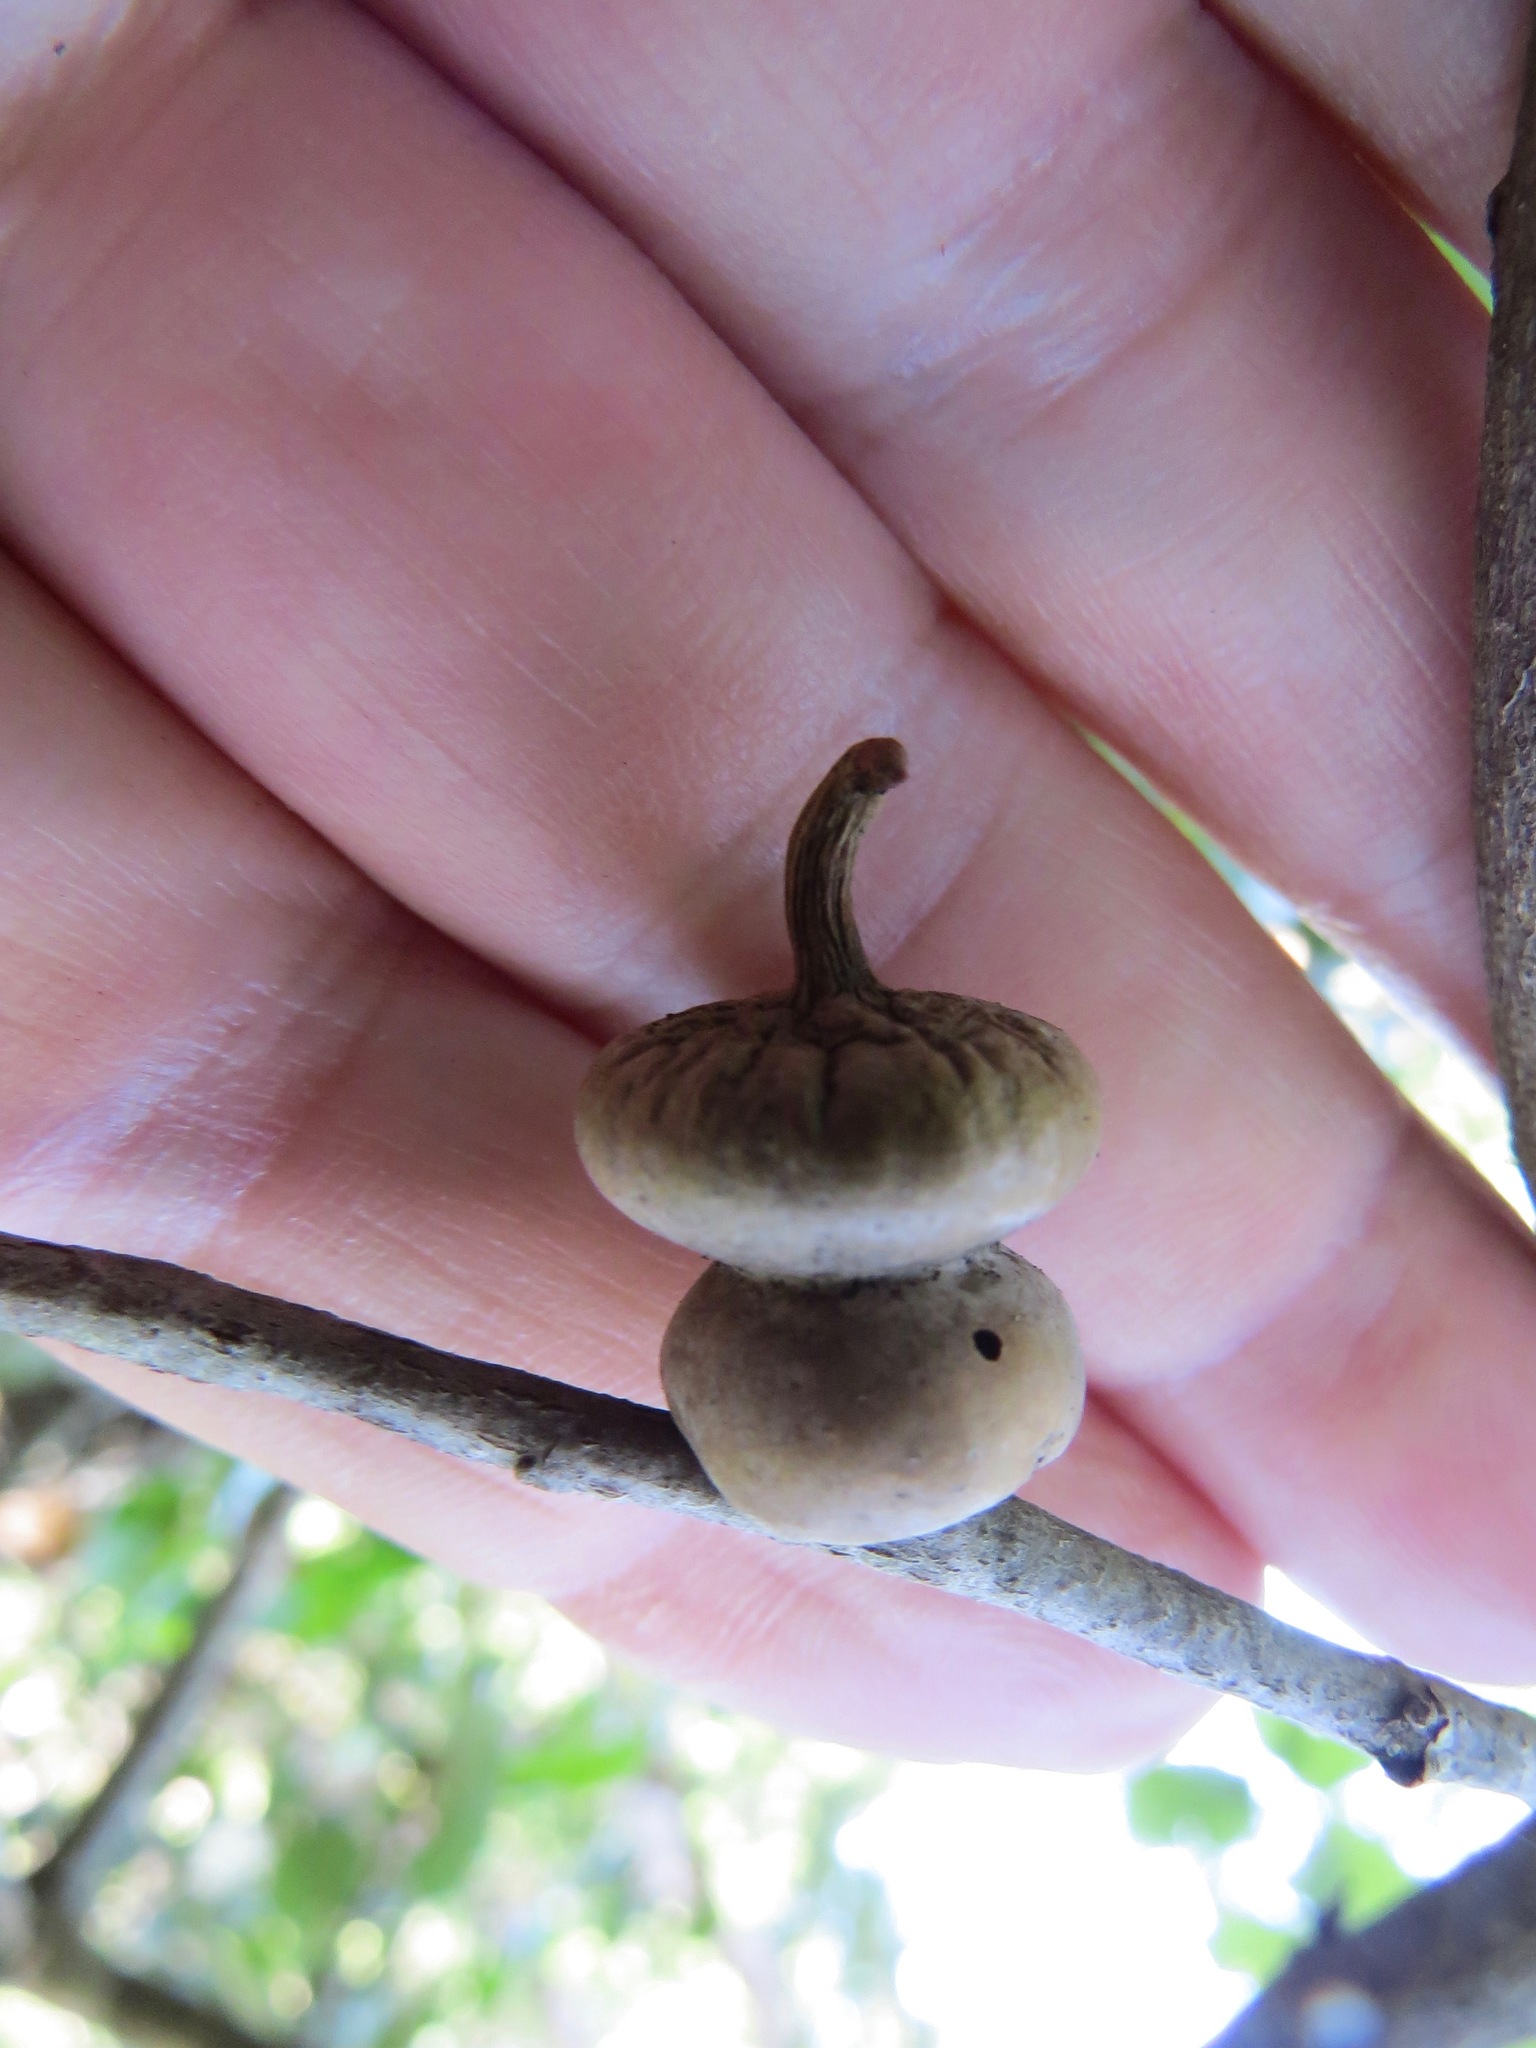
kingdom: Animalia
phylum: Arthropoda
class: Insecta
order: Hymenoptera
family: Cynipidae
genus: Heteroecus
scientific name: Heteroecus
